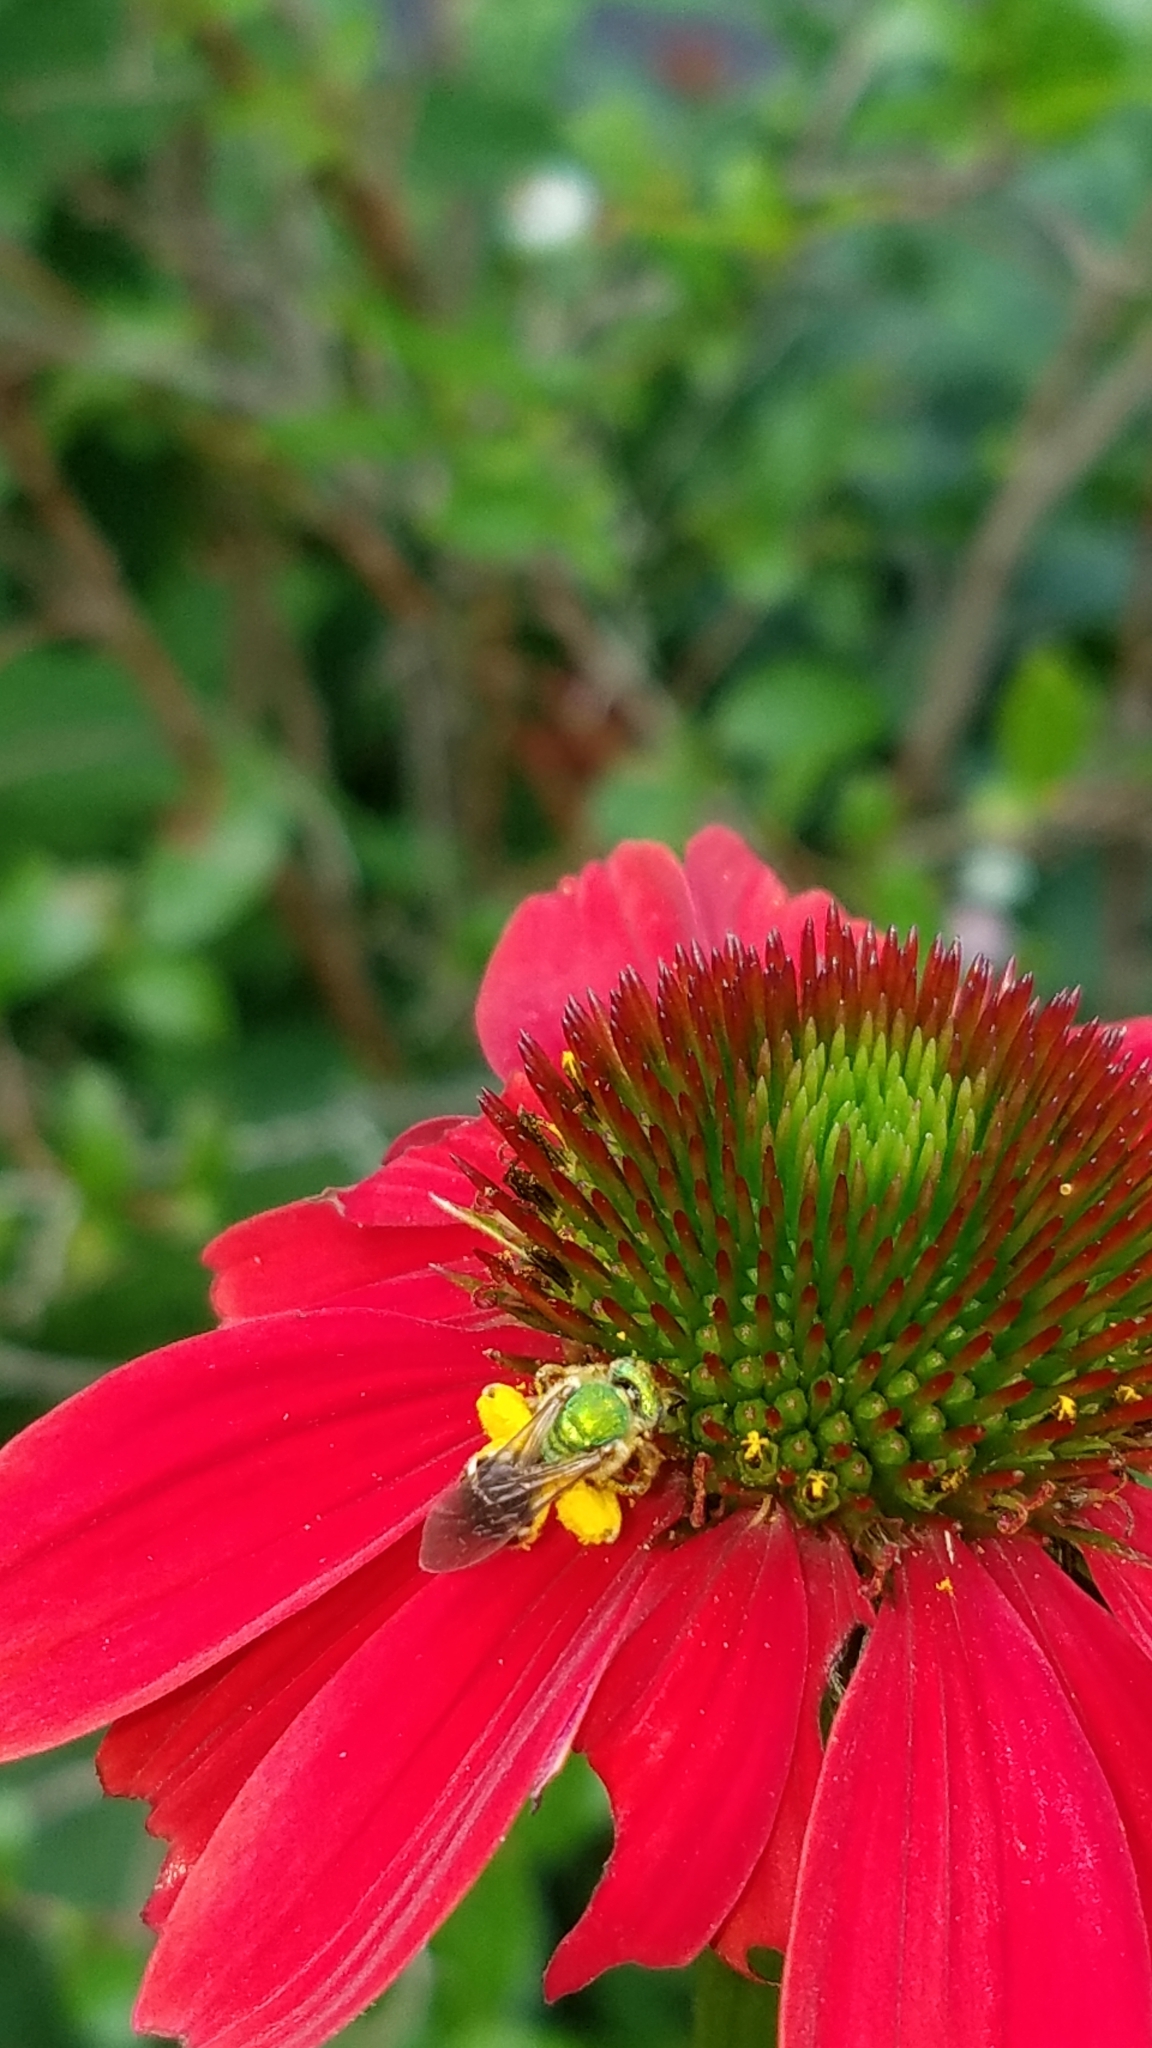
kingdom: Animalia
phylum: Arthropoda
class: Insecta
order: Hymenoptera
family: Halictidae
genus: Agapostemon
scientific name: Agapostemon virescens
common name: Bicolored striped sweat bee
